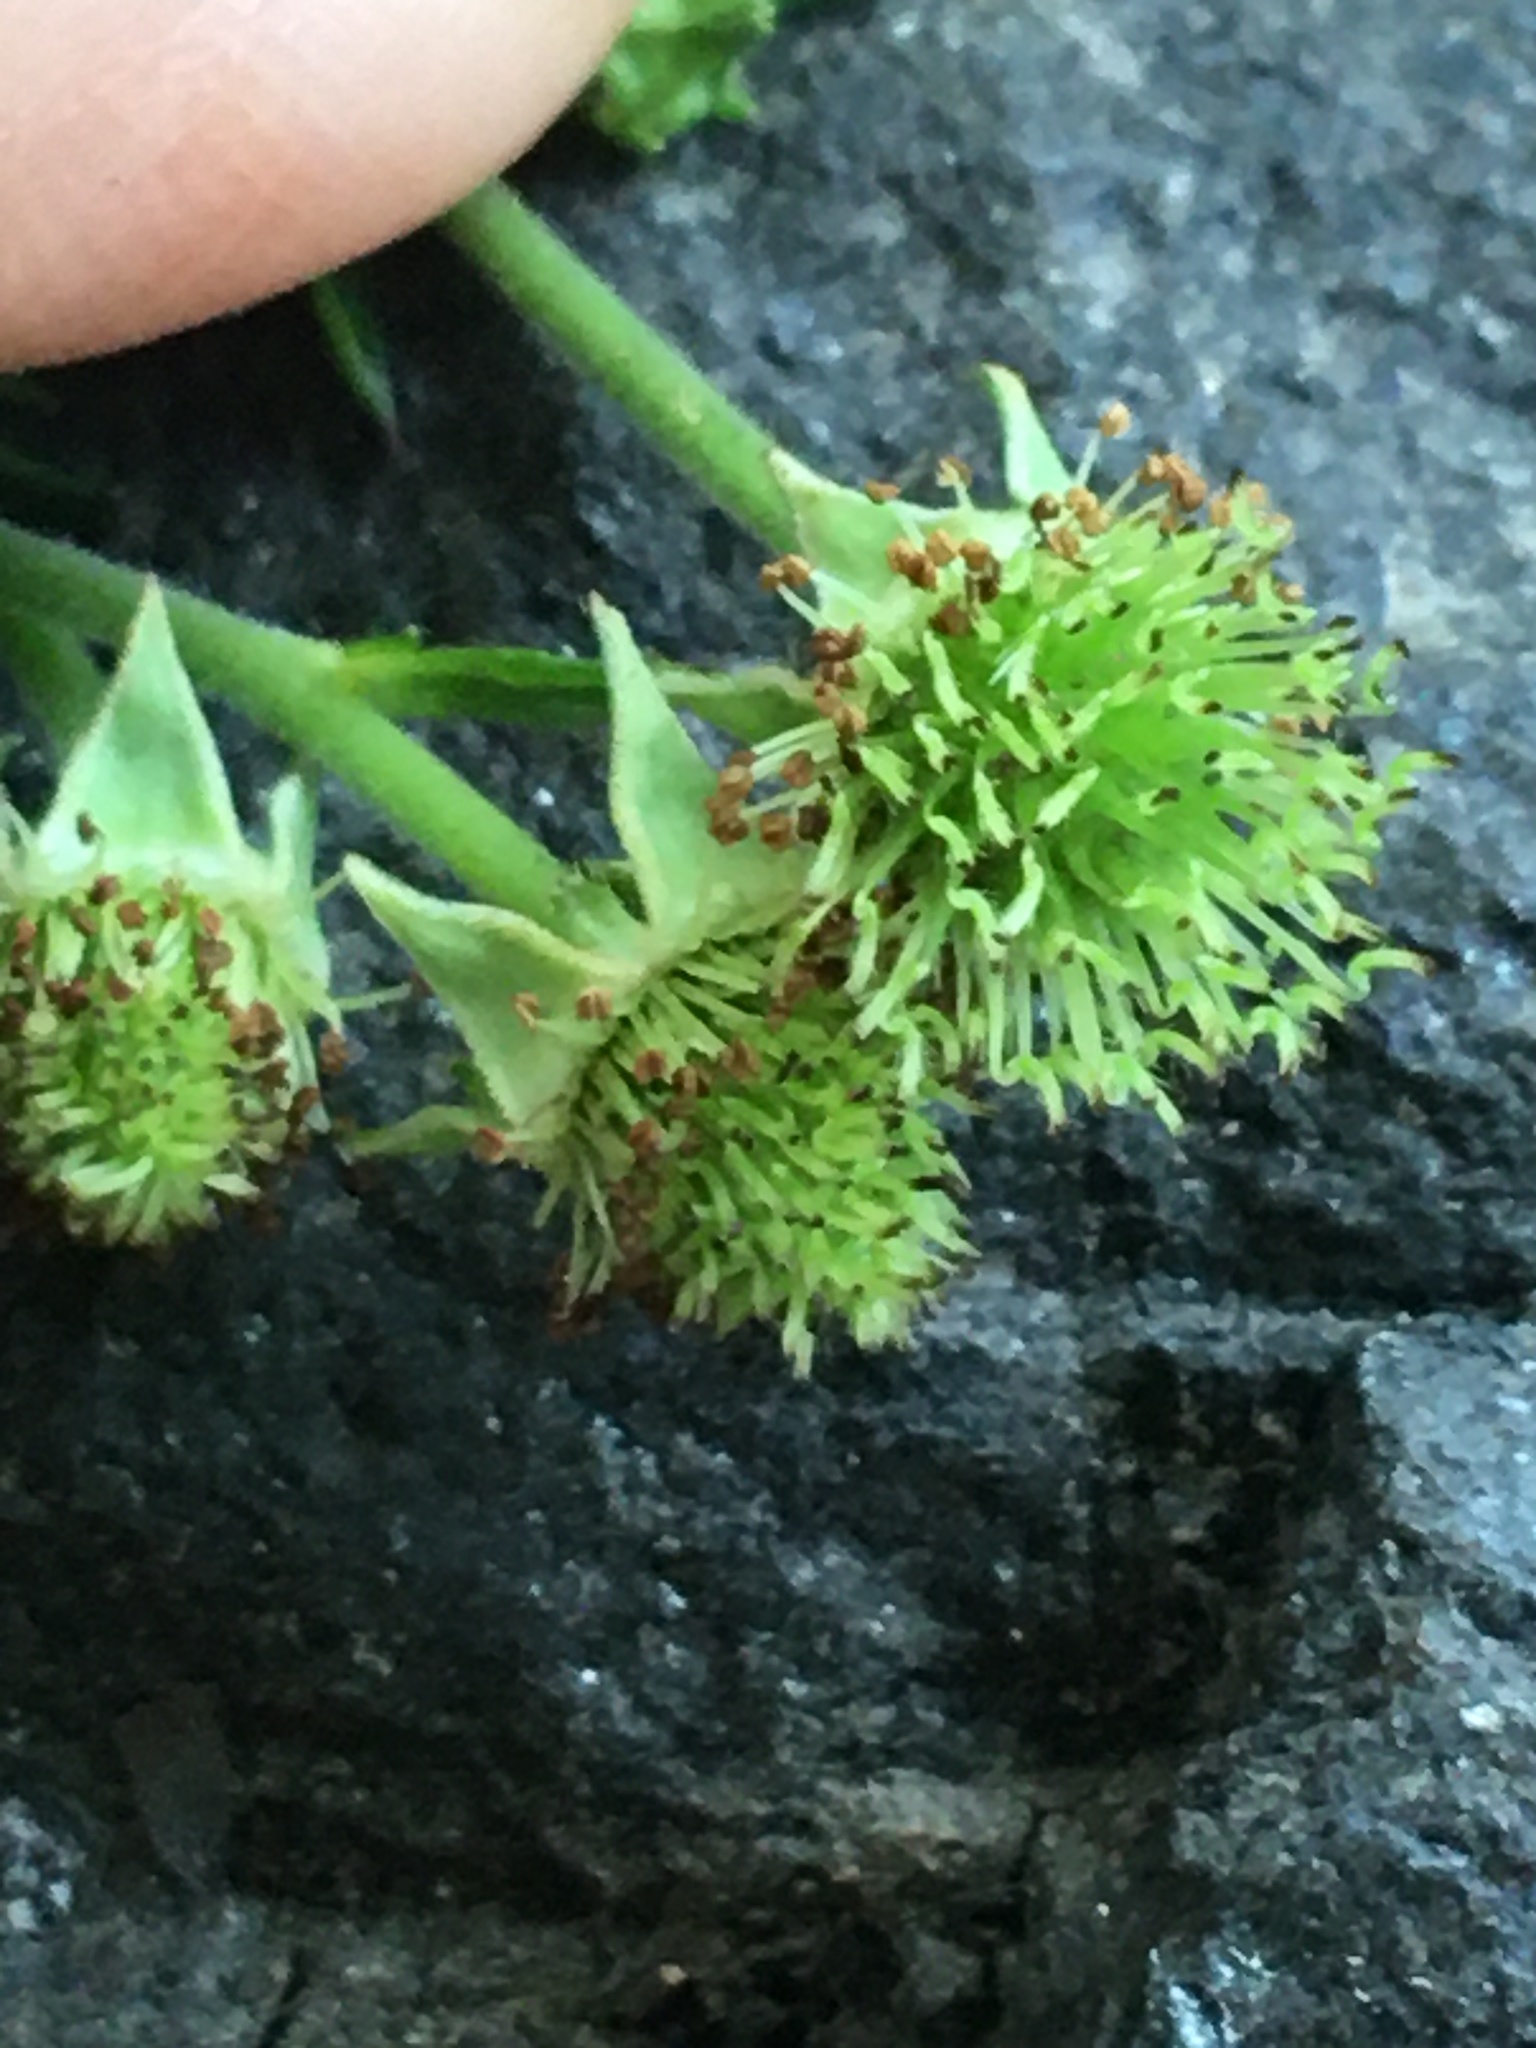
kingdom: Plantae
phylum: Tracheophyta
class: Magnoliopsida
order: Rosales
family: Rosaceae
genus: Geum
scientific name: Geum canadense
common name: White avens
